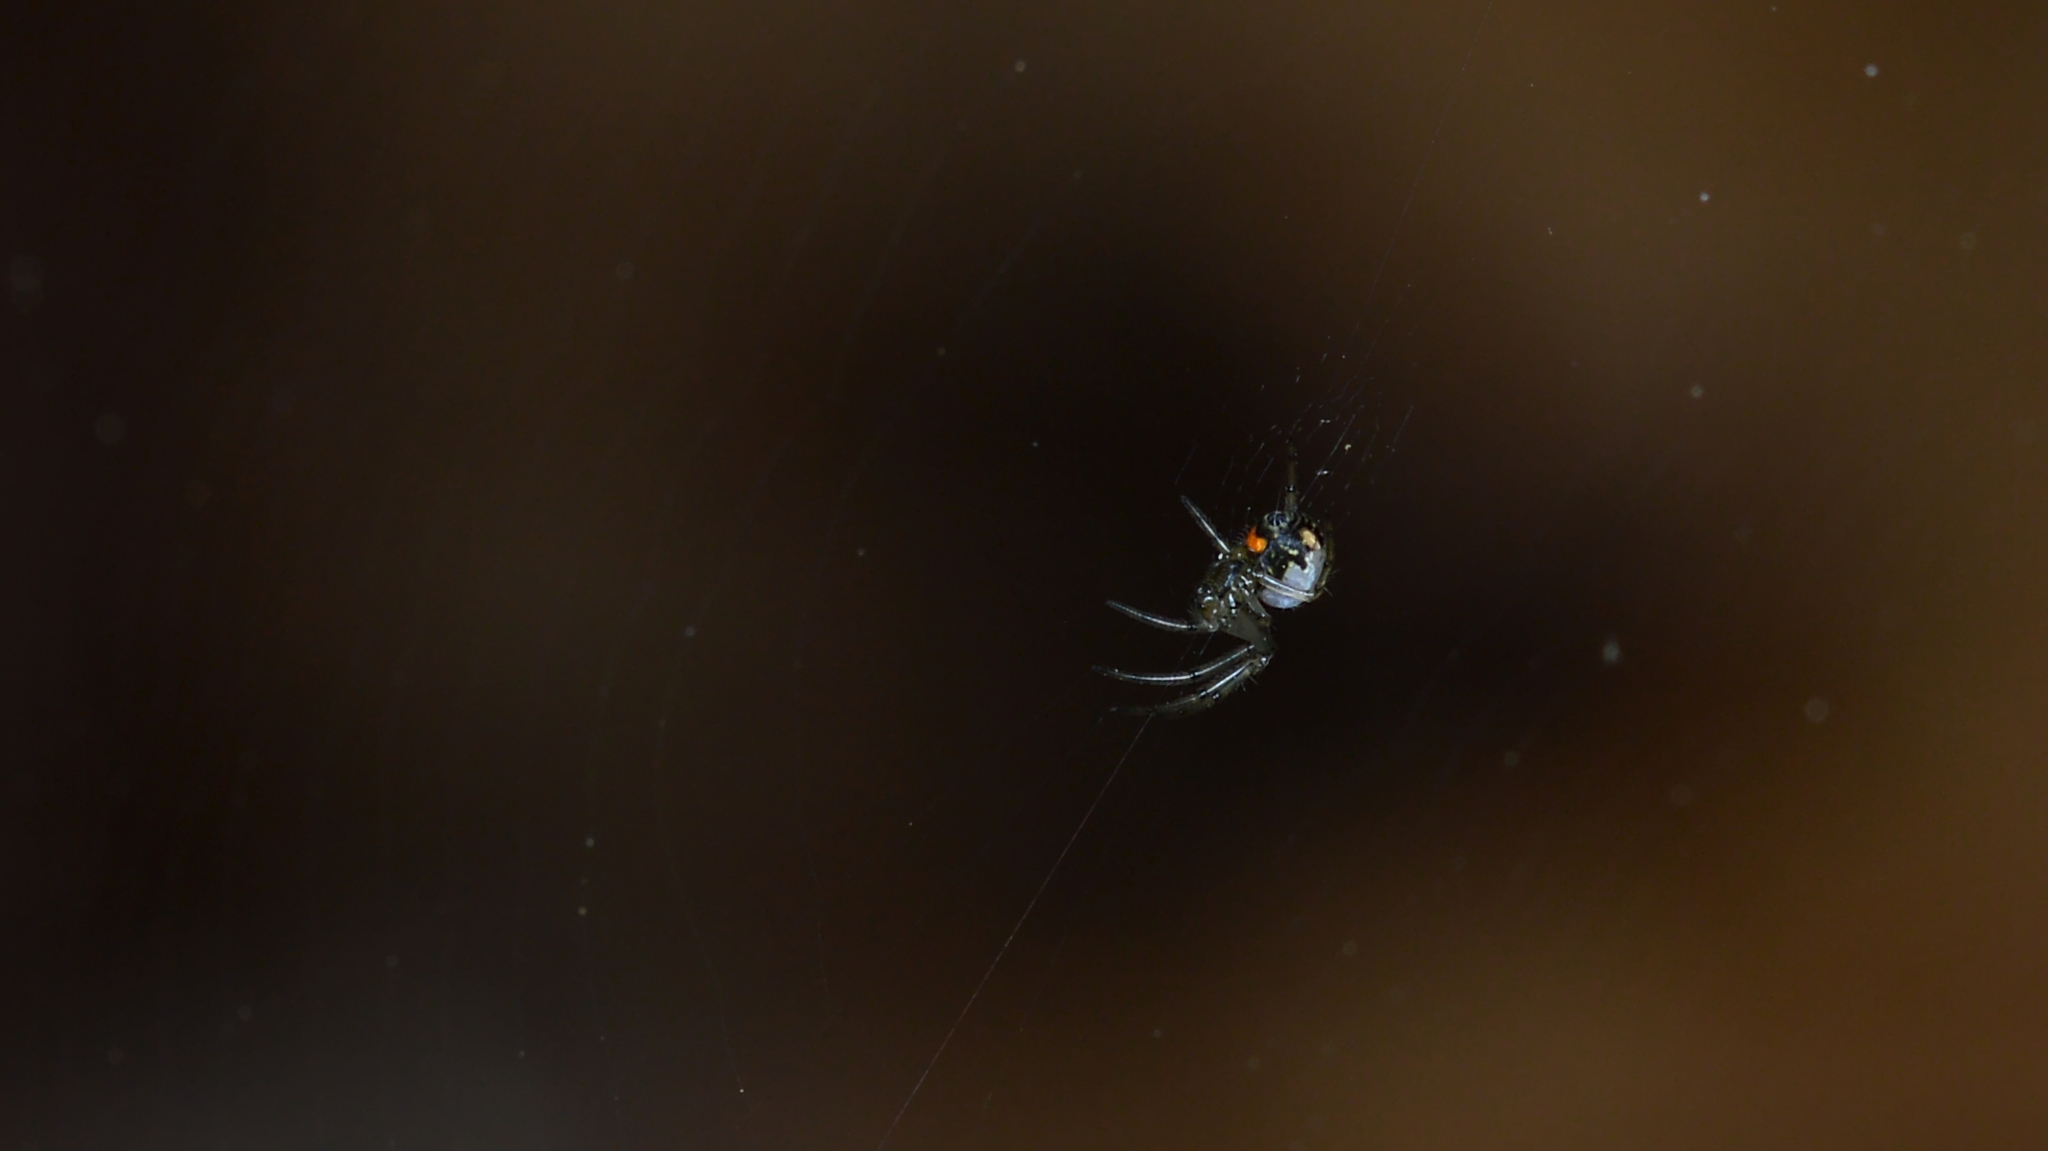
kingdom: Animalia
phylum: Arthropoda
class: Arachnida
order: Araneae
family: Tetragnathidae
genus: Leucauge
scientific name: Leucauge venusta
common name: Longjawed orb weavers
